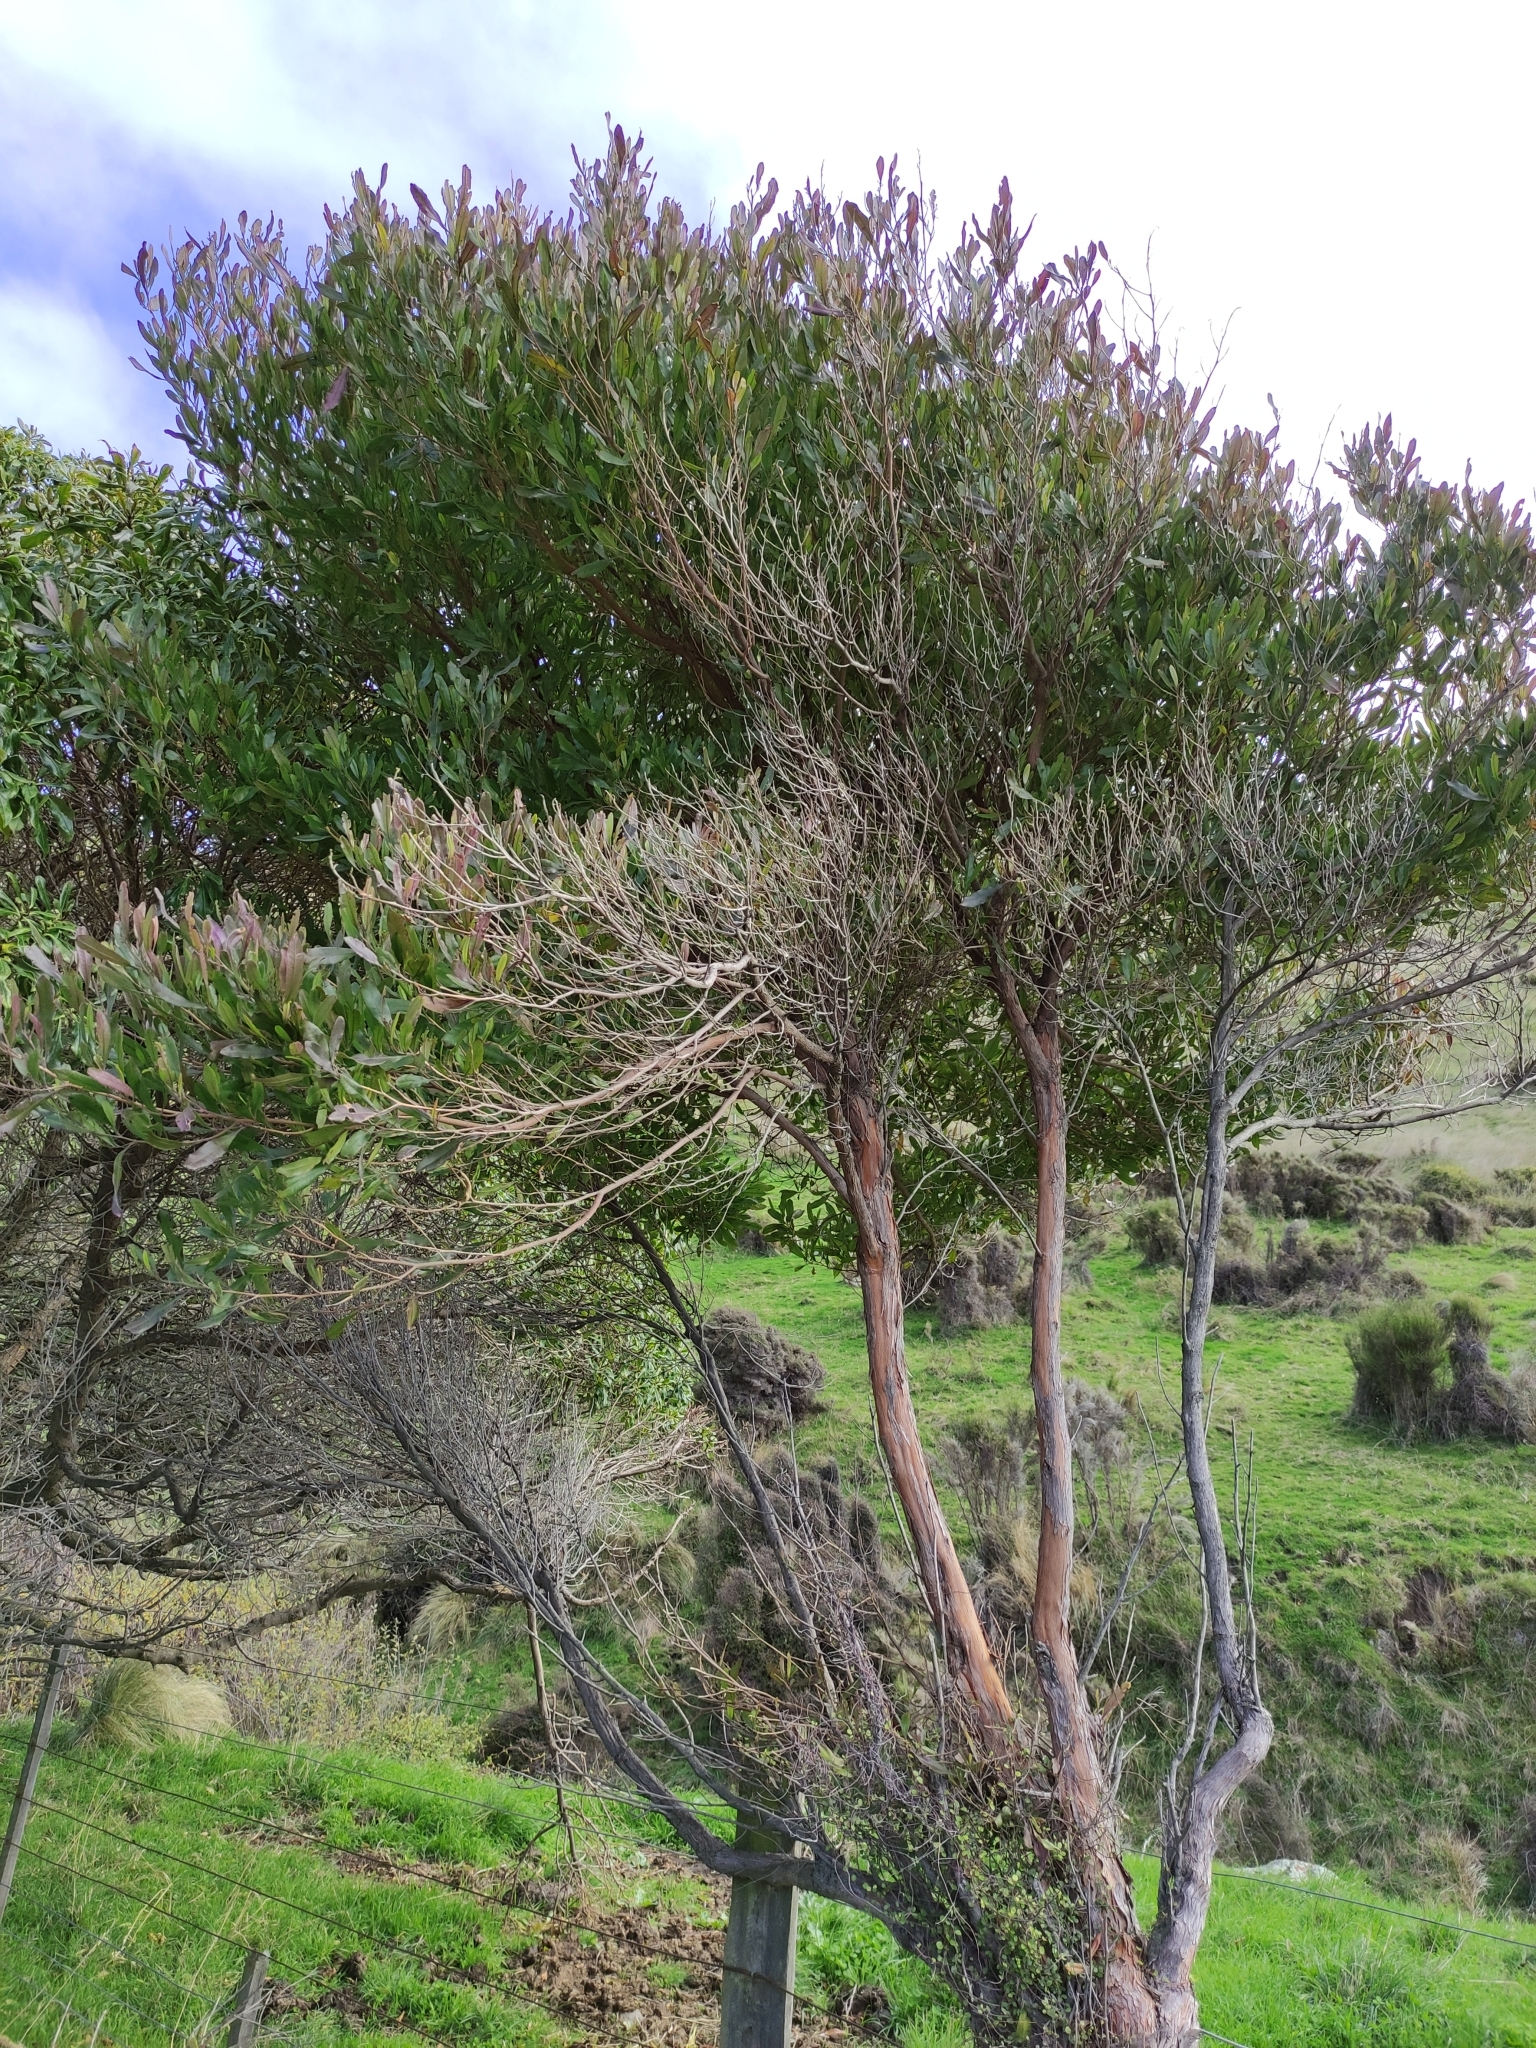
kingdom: Plantae
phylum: Tracheophyta
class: Magnoliopsida
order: Sapindales
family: Sapindaceae
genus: Dodonaea
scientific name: Dodonaea viscosa
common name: Hopbush
